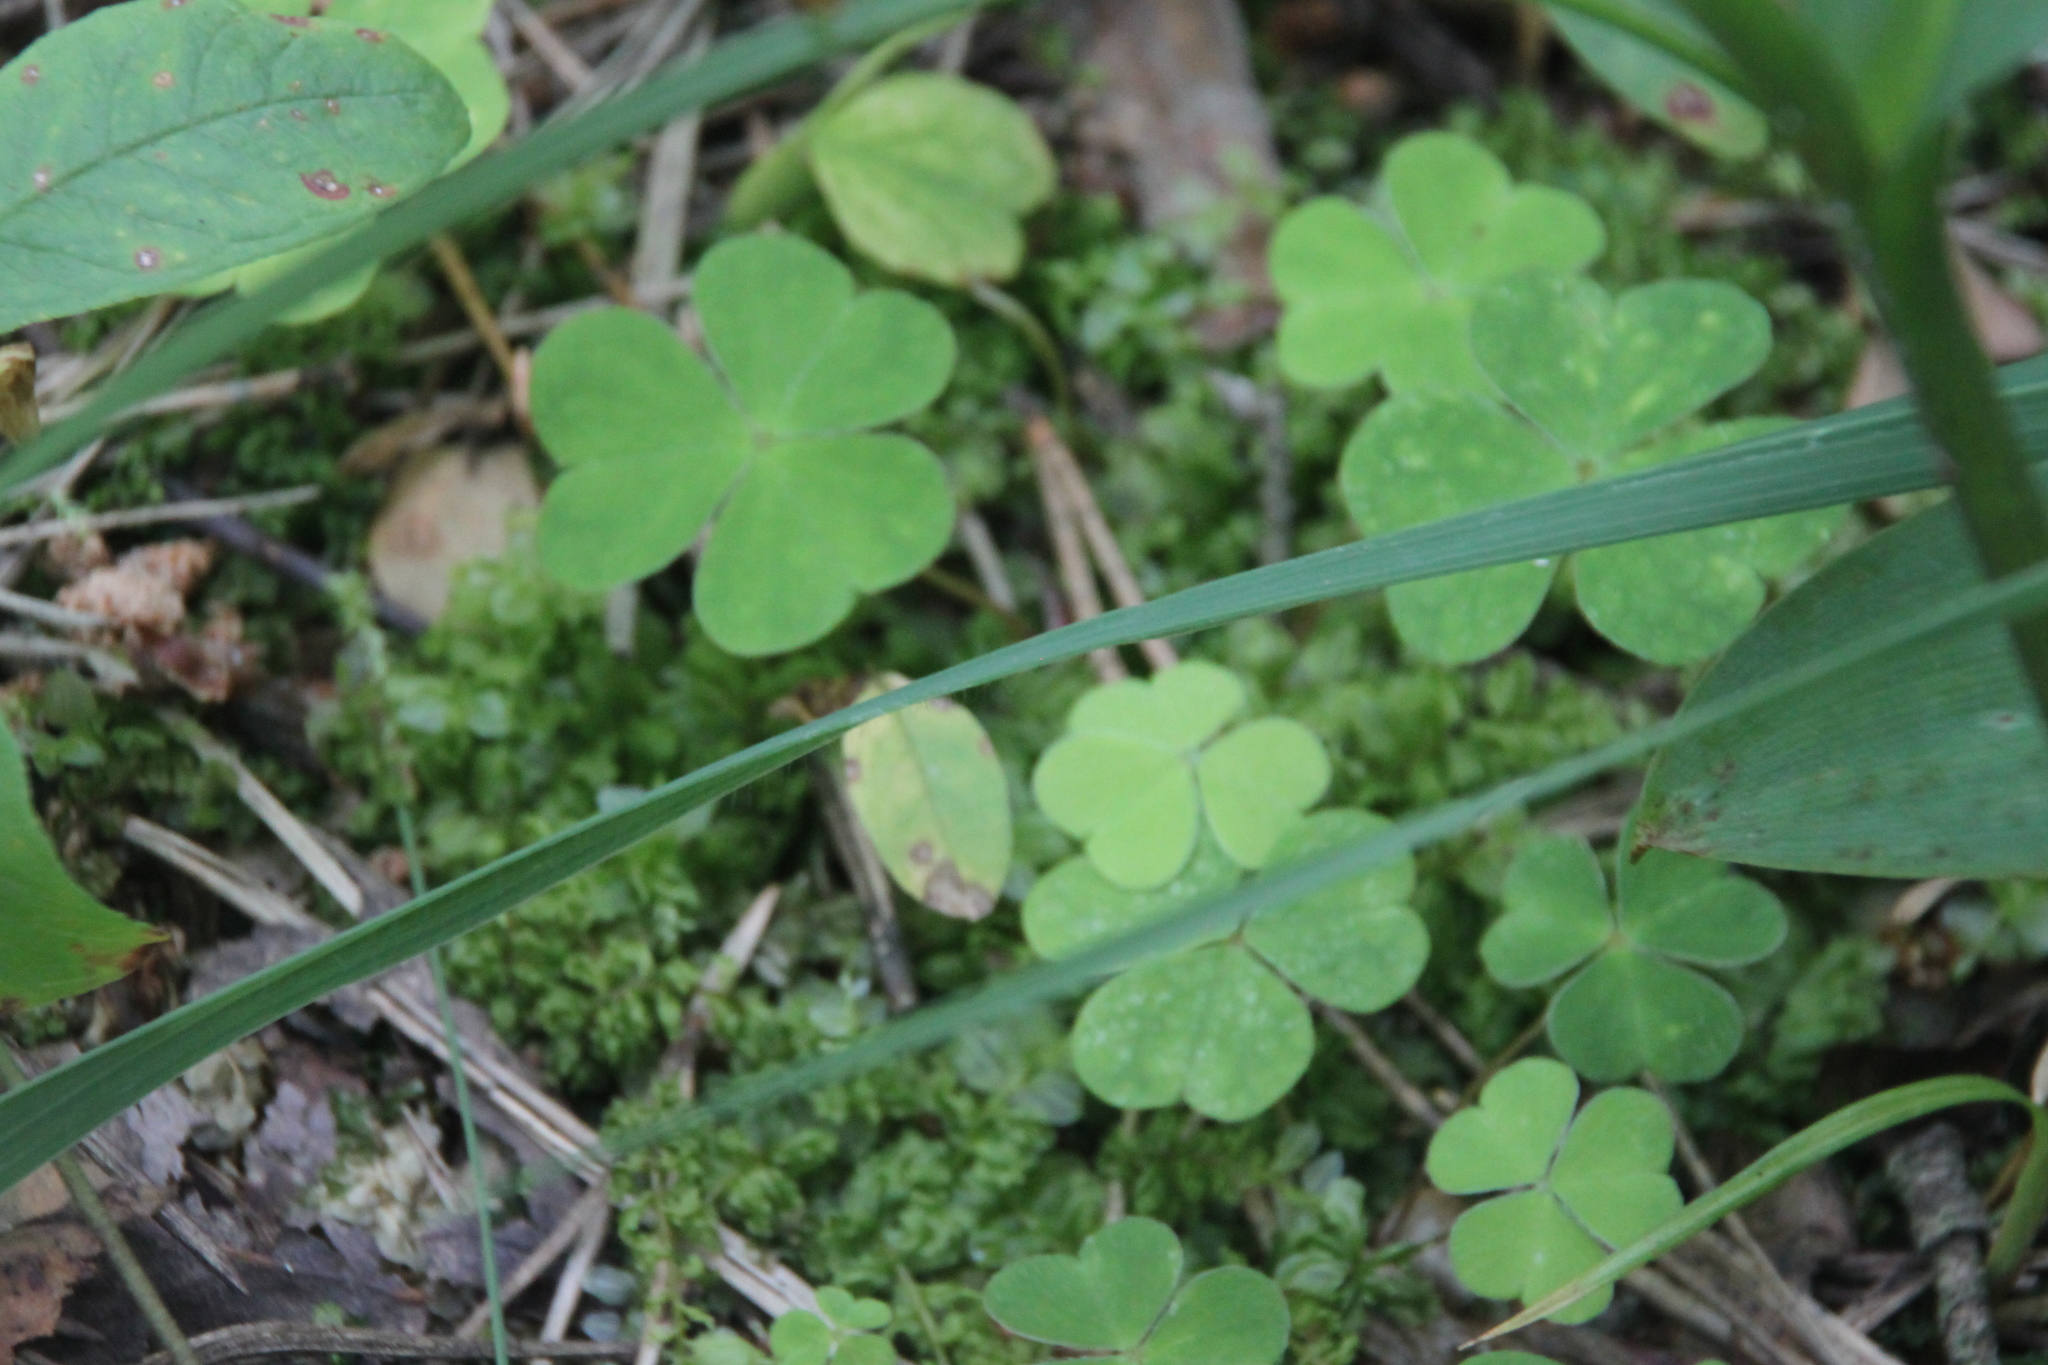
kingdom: Plantae
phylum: Tracheophyta
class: Magnoliopsida
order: Oxalidales
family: Oxalidaceae
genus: Oxalis
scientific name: Oxalis acetosella
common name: Wood-sorrel
